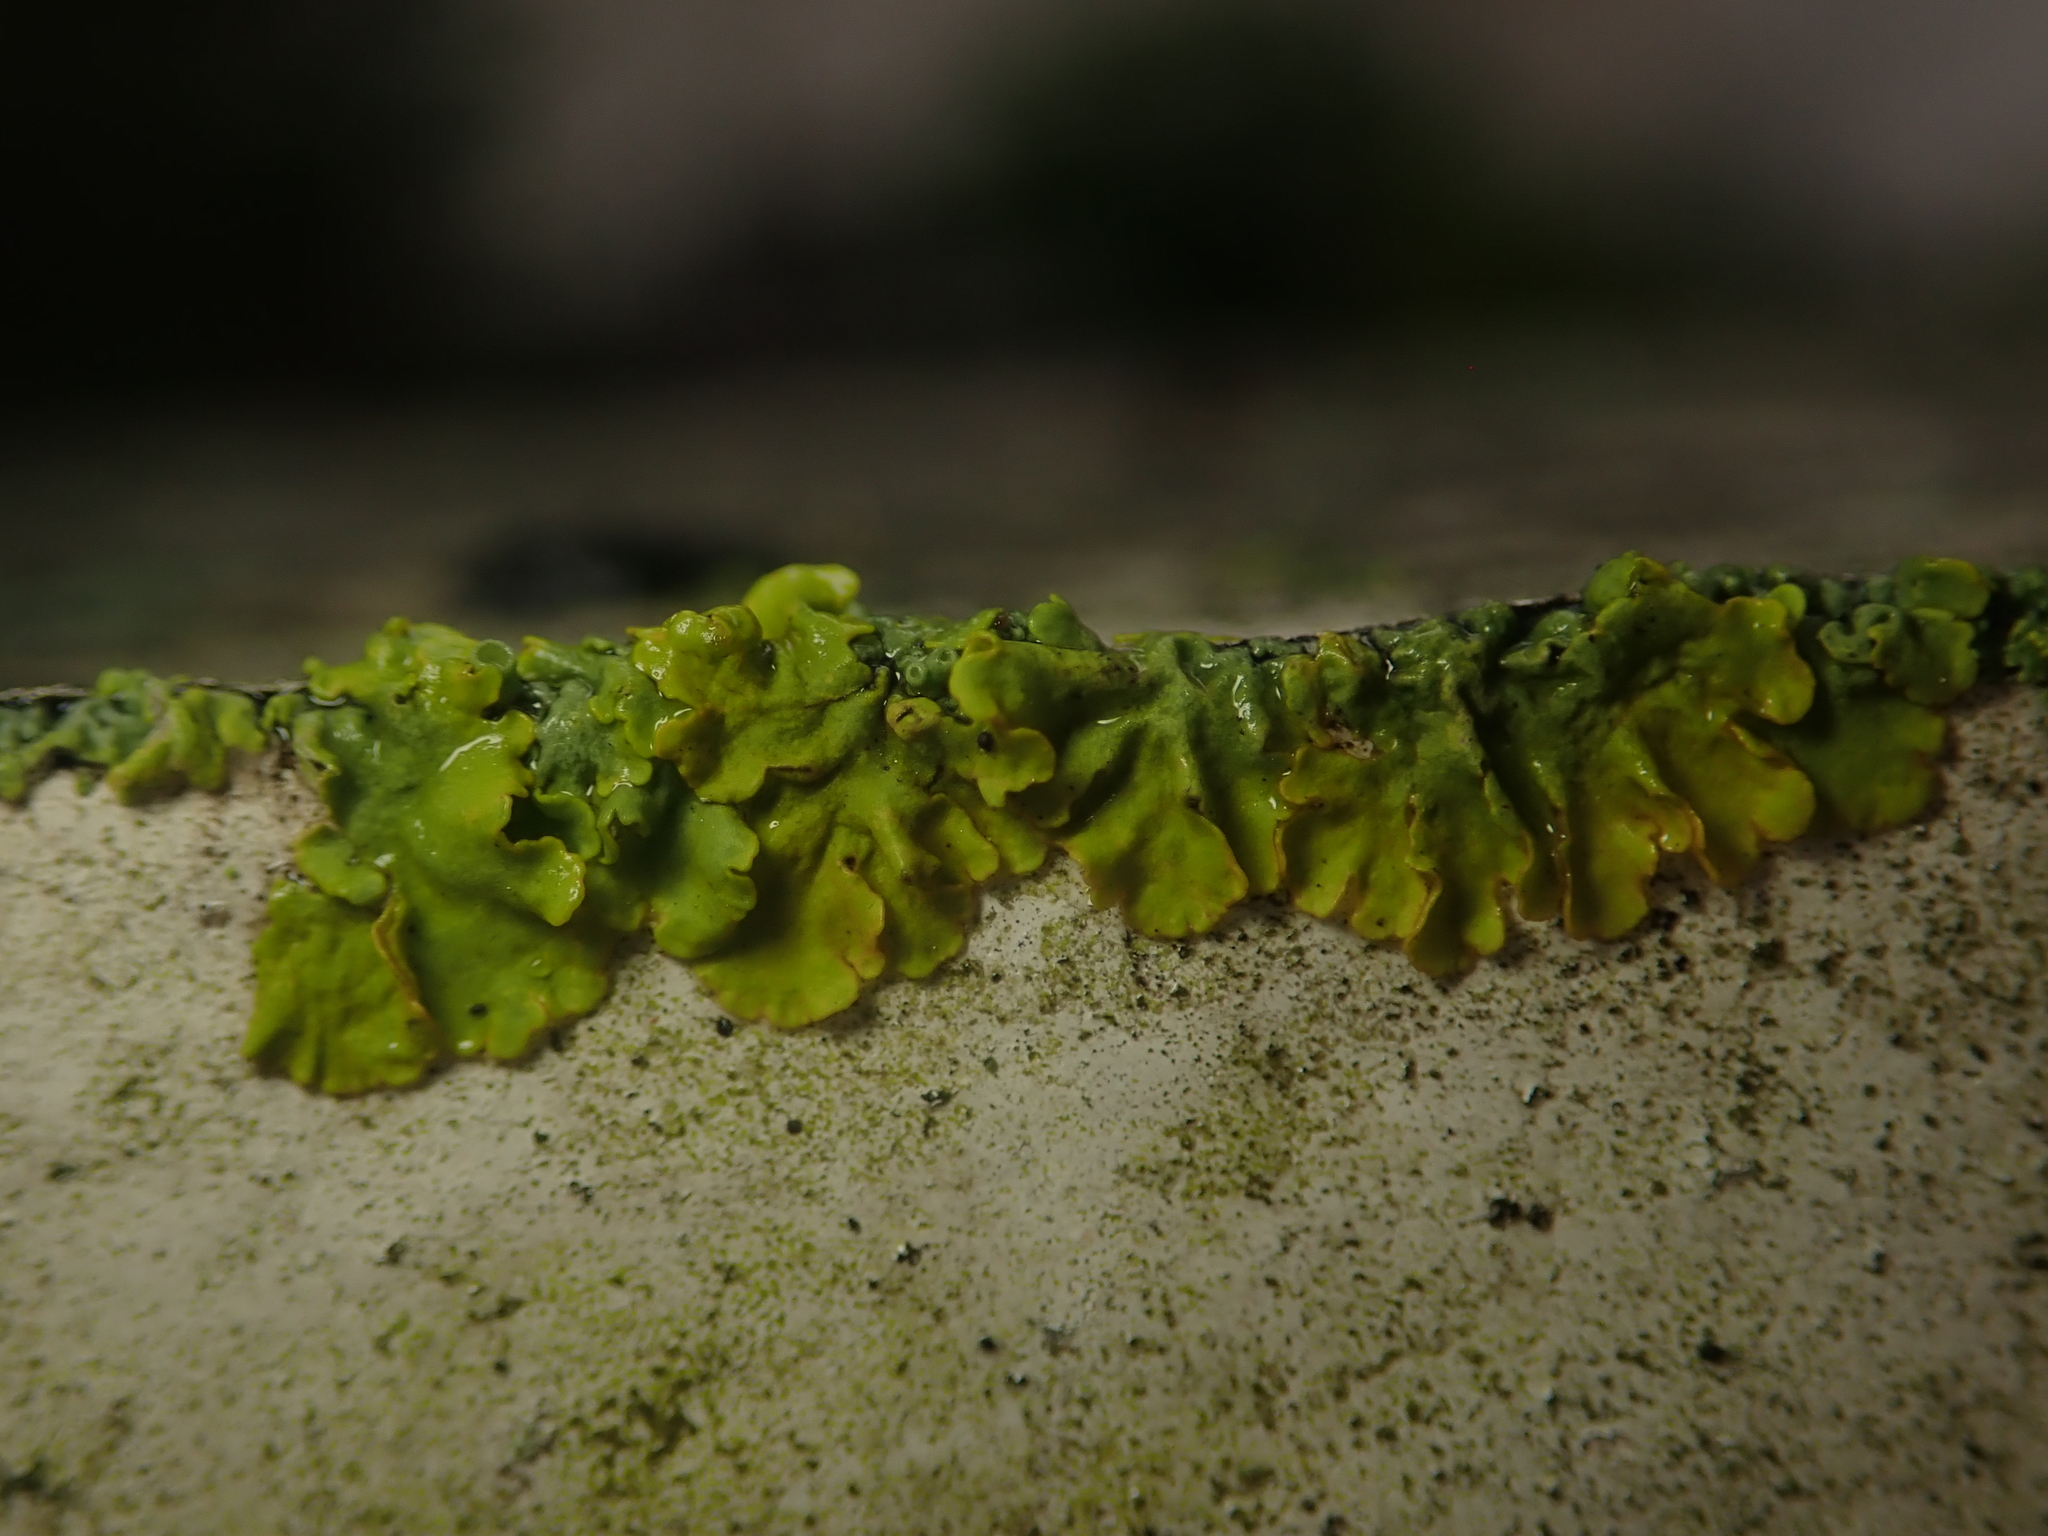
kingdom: Fungi
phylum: Ascomycota
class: Lecanoromycetes
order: Teloschistales
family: Teloschistaceae
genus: Xanthoria
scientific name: Xanthoria parietina
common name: Common orange lichen
